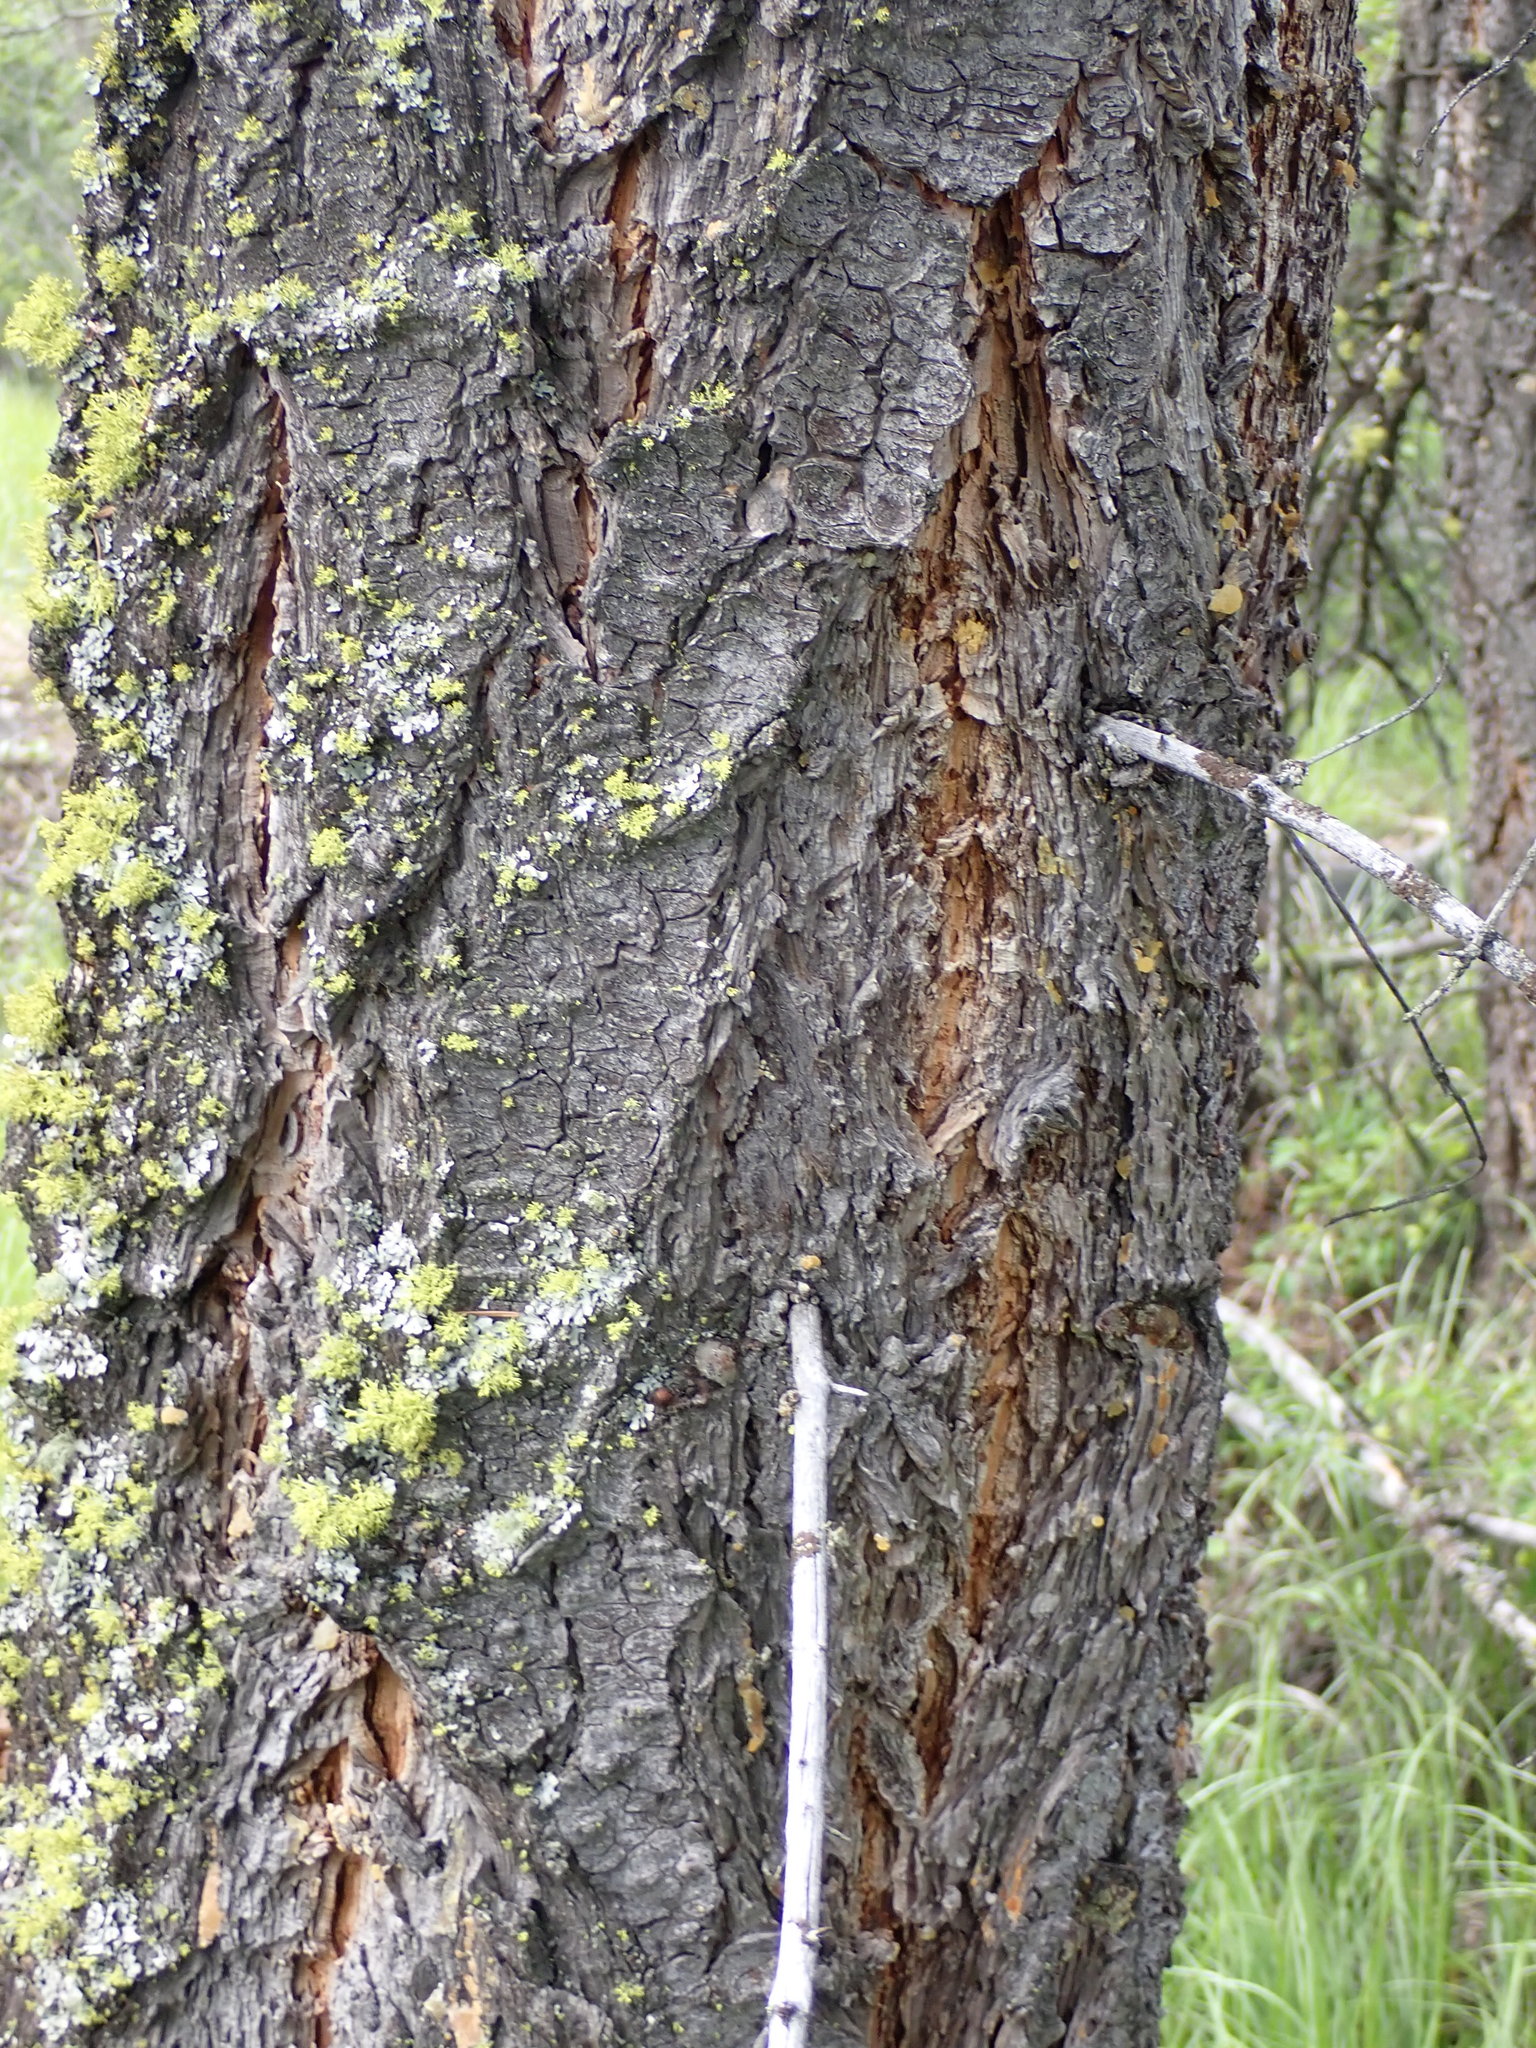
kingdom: Plantae
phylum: Tracheophyta
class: Pinopsida
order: Pinales
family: Pinaceae
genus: Pseudotsuga
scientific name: Pseudotsuga menziesii
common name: Douglas fir
